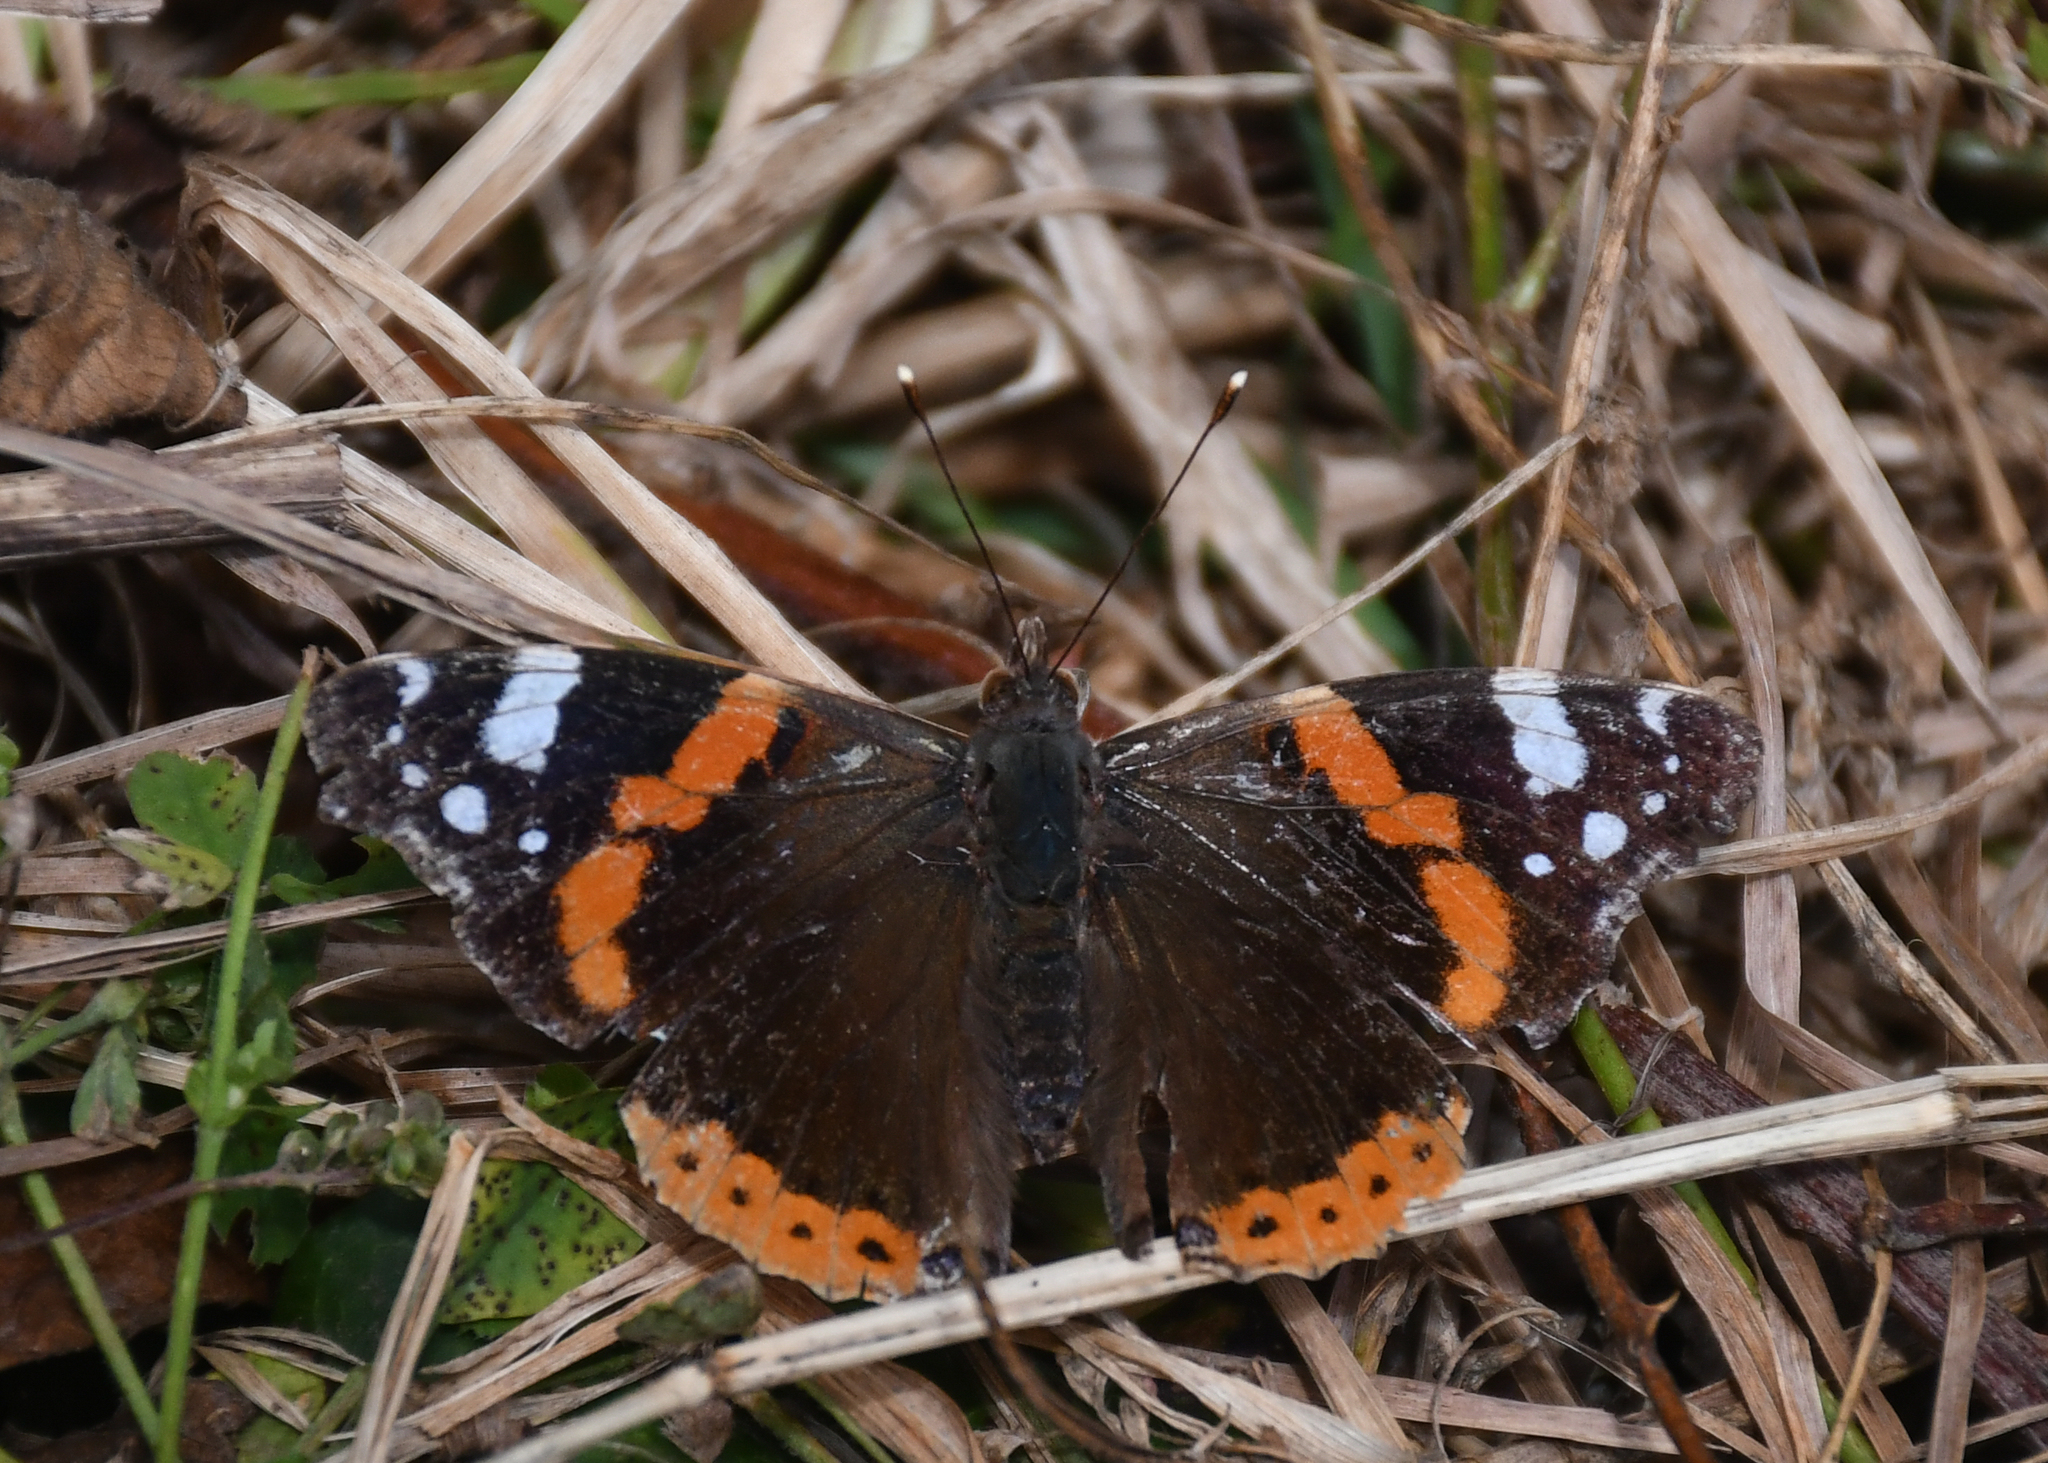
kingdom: Animalia
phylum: Arthropoda
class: Insecta
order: Lepidoptera
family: Nymphalidae
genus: Vanessa
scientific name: Vanessa atalanta
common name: Red admiral
